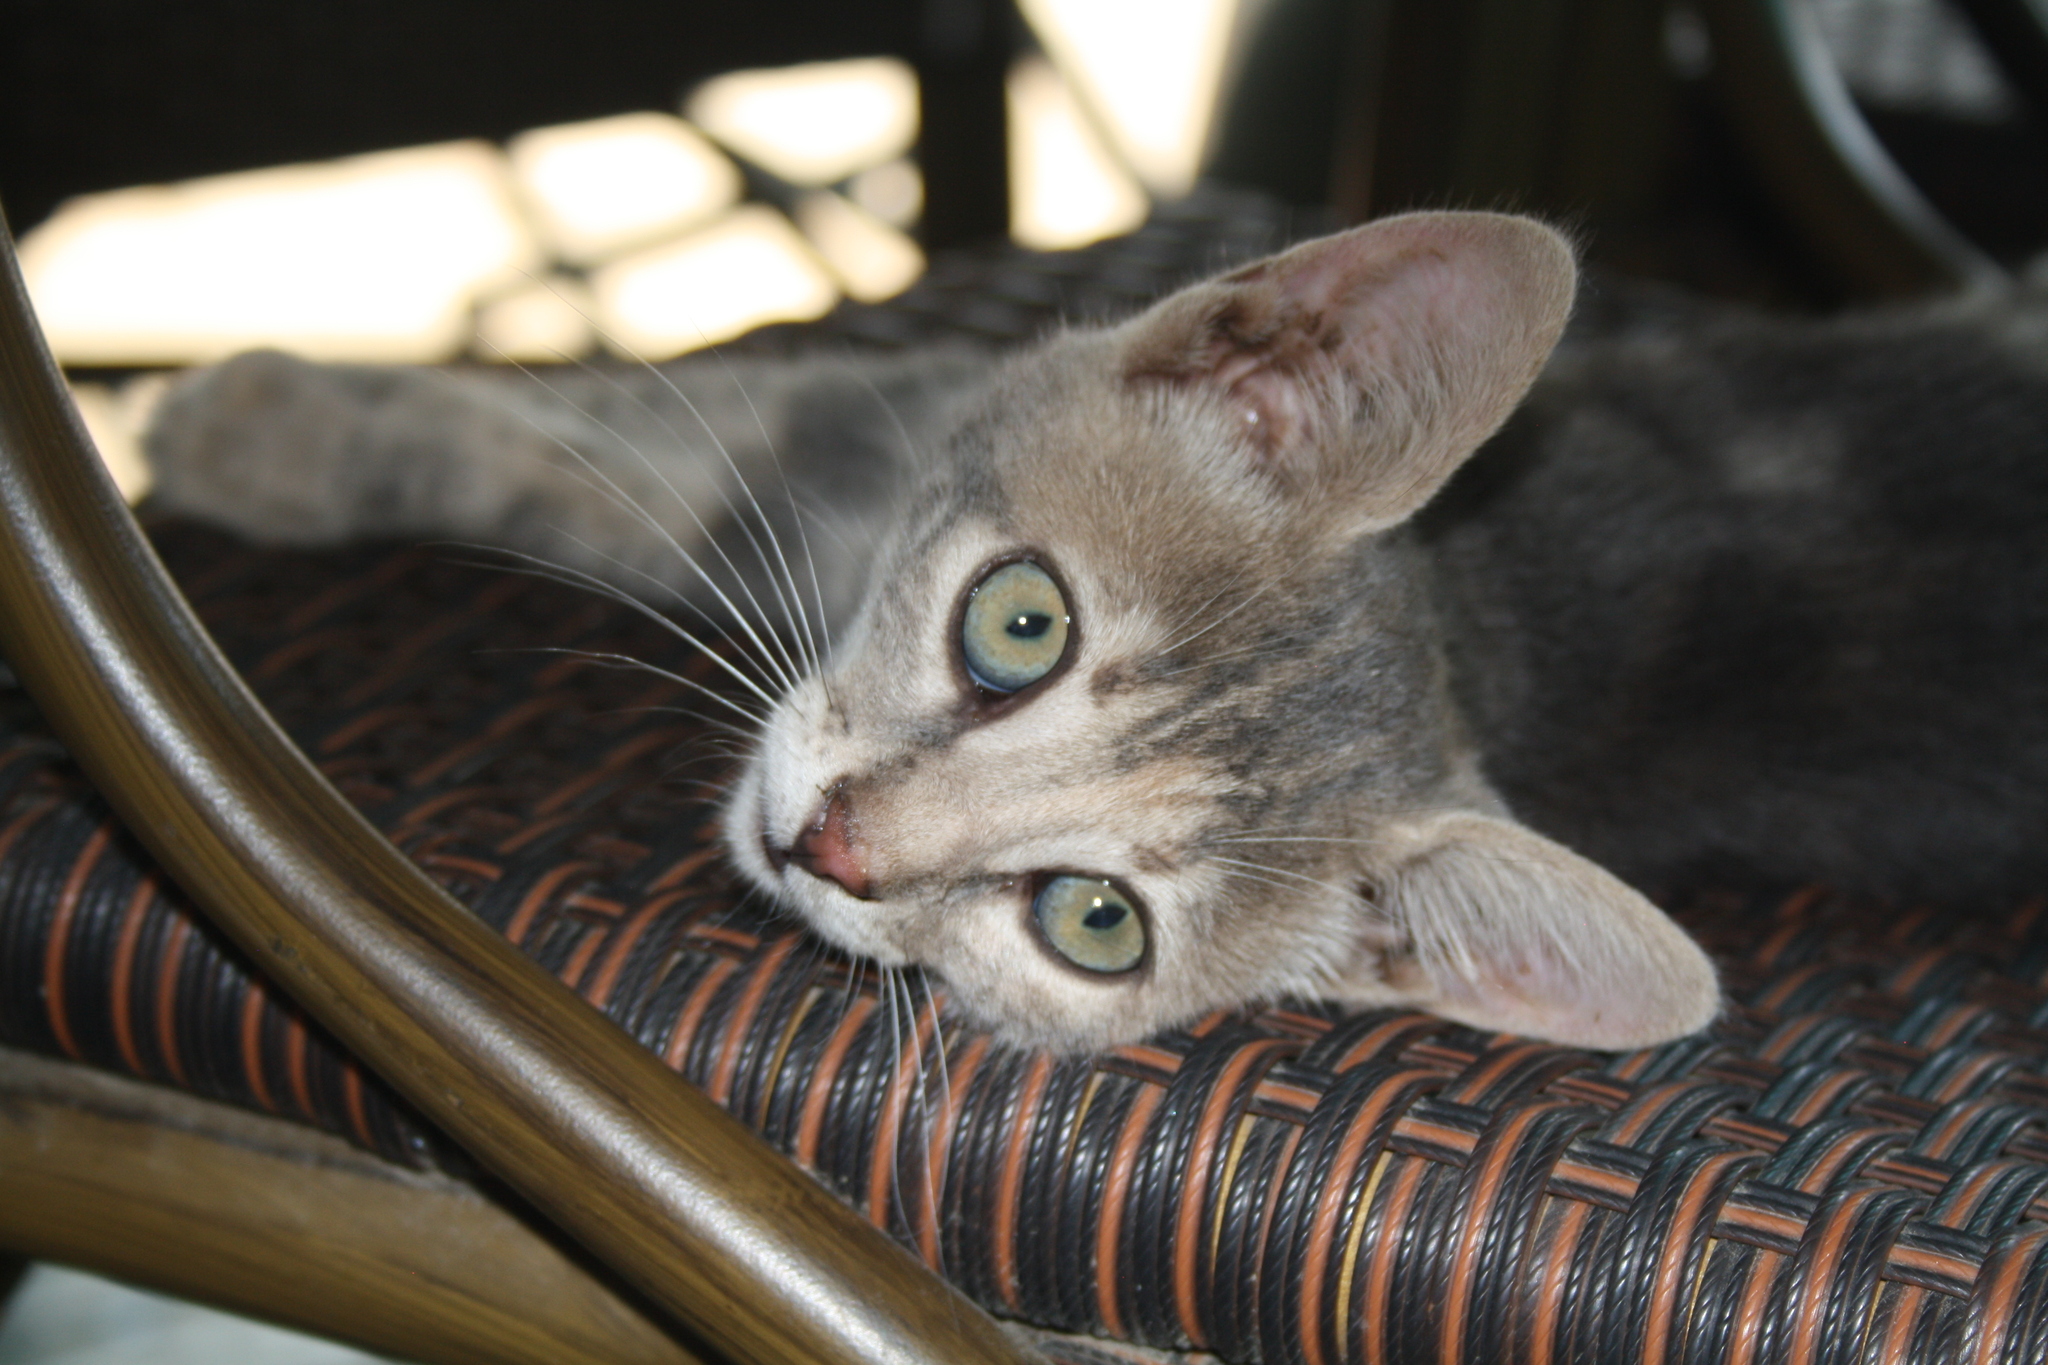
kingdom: Animalia
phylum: Chordata
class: Mammalia
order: Carnivora
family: Felidae
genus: Felis
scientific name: Felis catus
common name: Domestic cat
